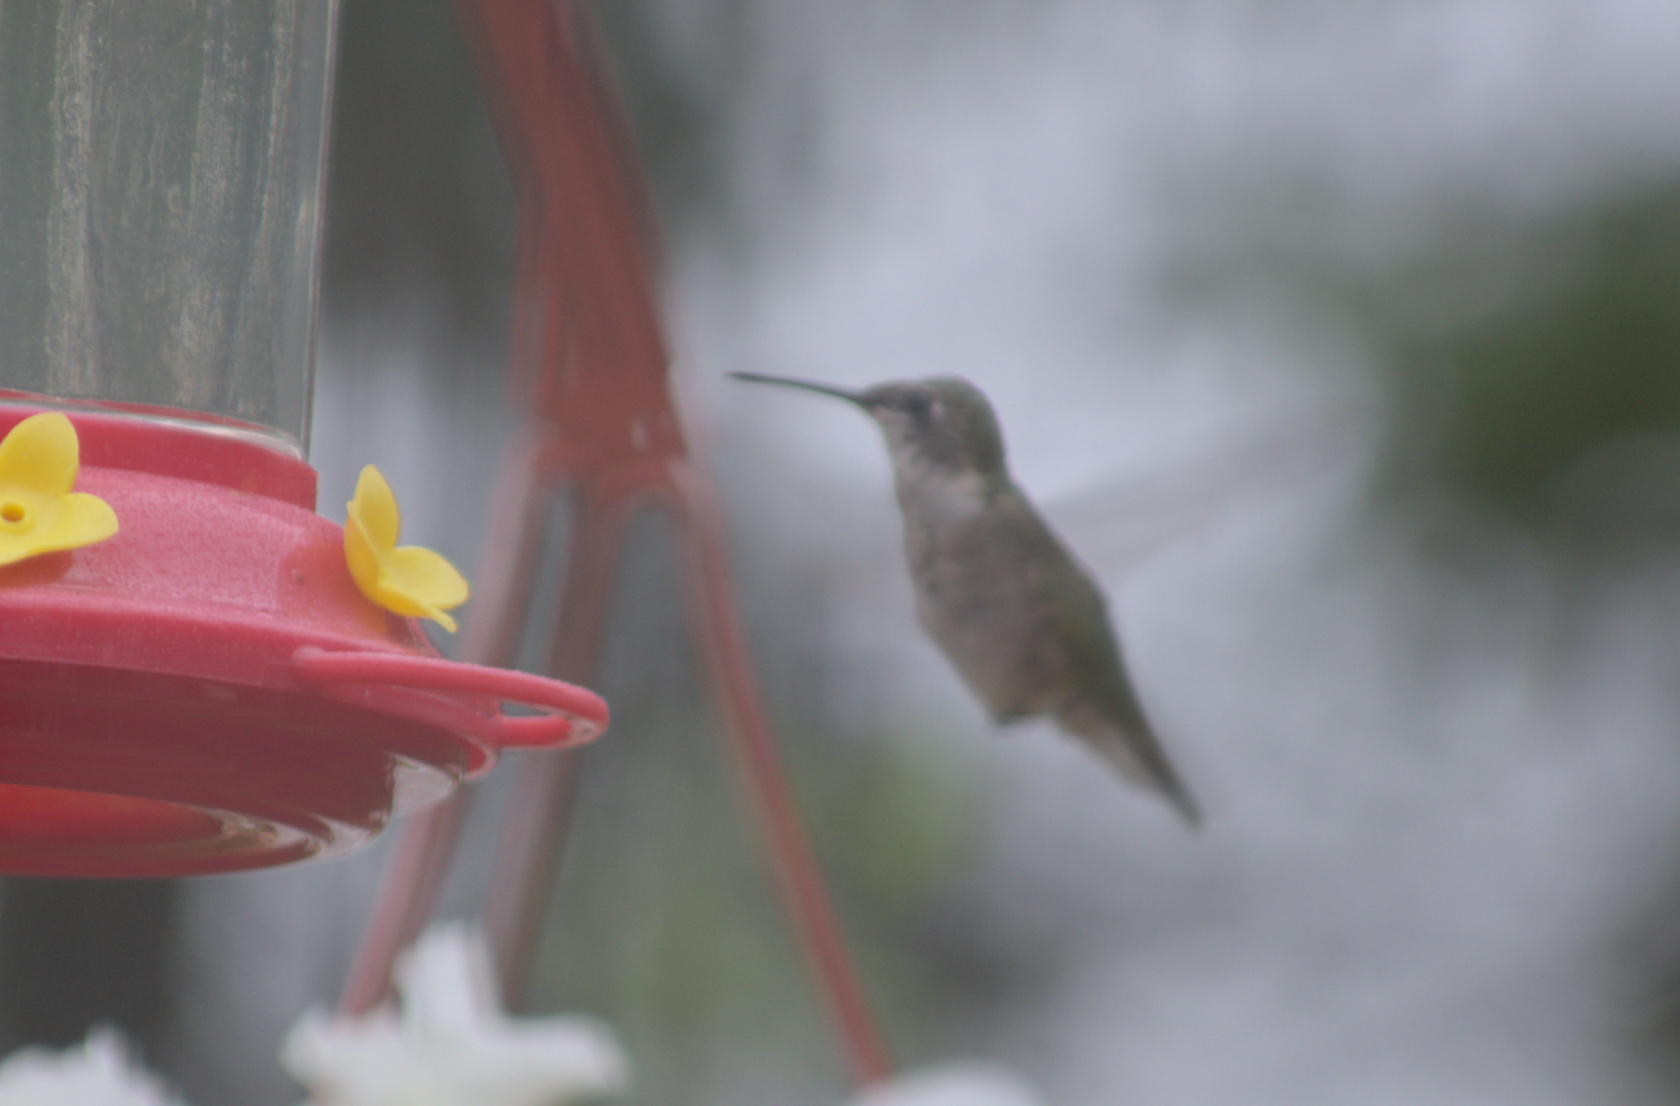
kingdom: Animalia
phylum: Chordata
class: Aves
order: Apodiformes
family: Trochilidae
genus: Archilochus
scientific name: Archilochus colubris
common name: Ruby-throated hummingbird
